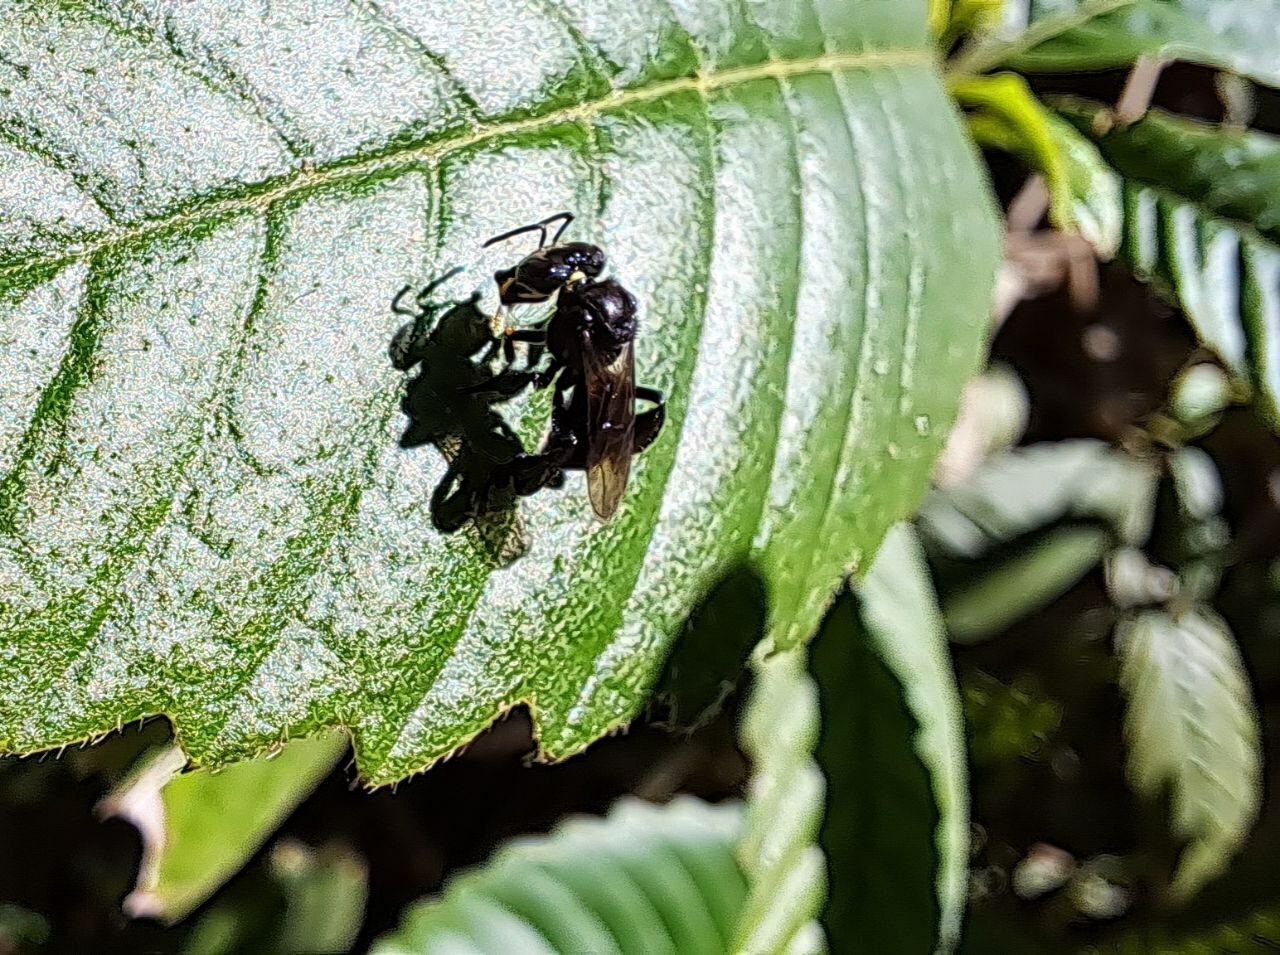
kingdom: Animalia
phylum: Arthropoda
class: Insecta
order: Hymenoptera
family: Apidae
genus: Heterotrigona
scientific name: Heterotrigona itama
